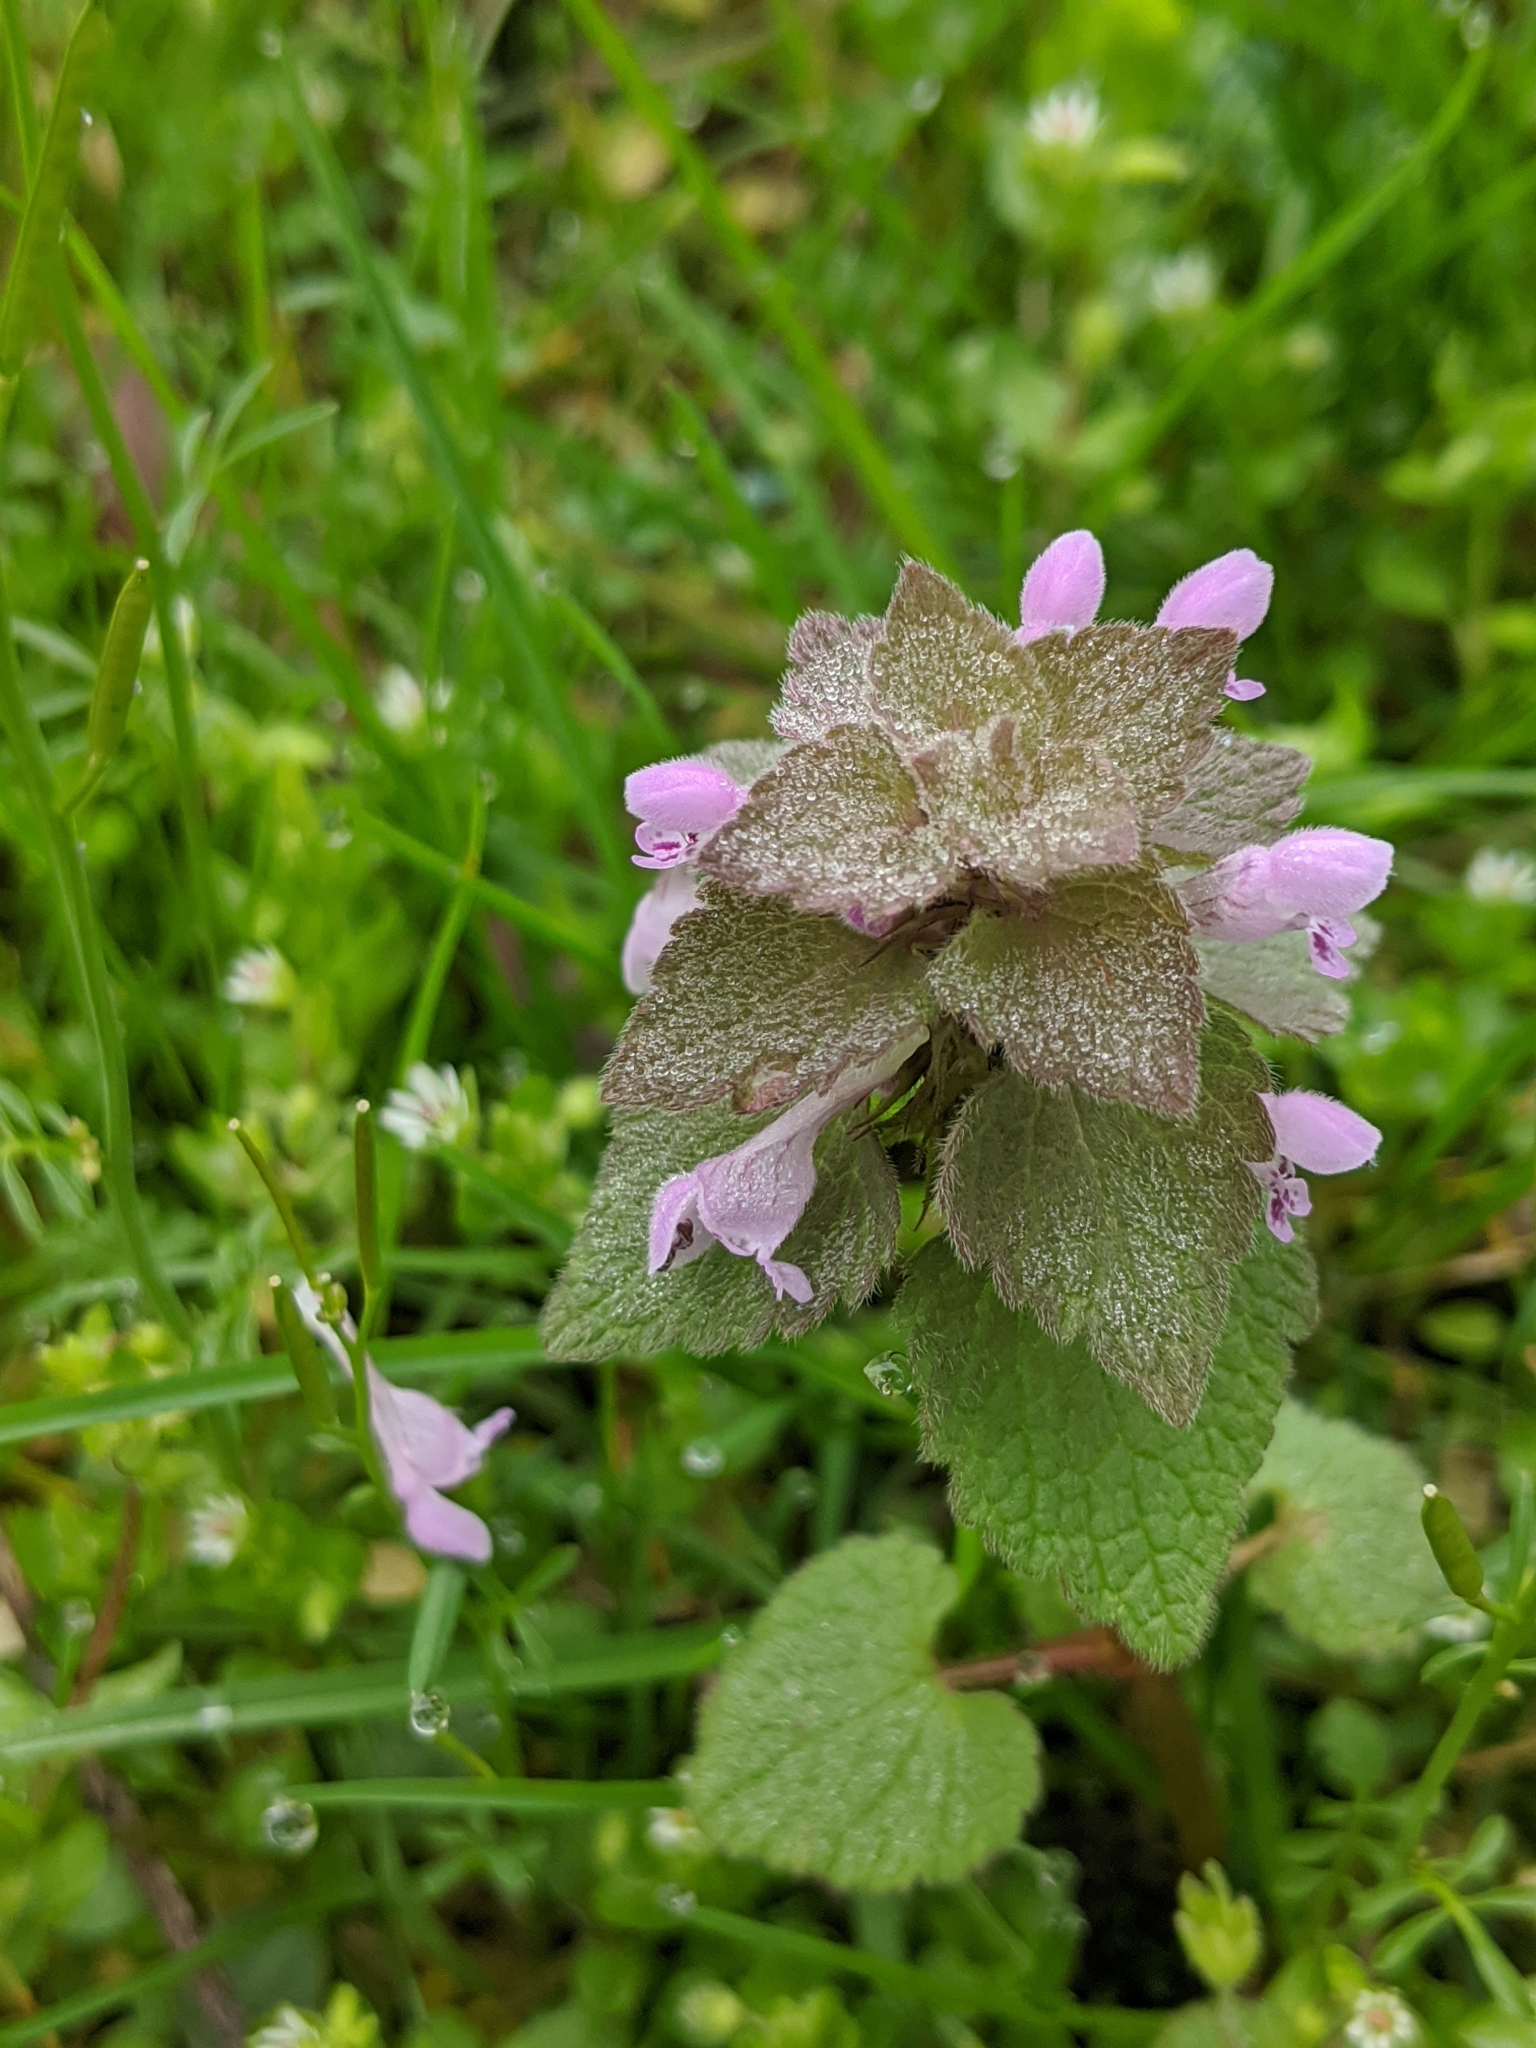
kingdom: Plantae
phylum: Tracheophyta
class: Magnoliopsida
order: Lamiales
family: Lamiaceae
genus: Lamium
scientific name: Lamium purpureum
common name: Red dead-nettle
